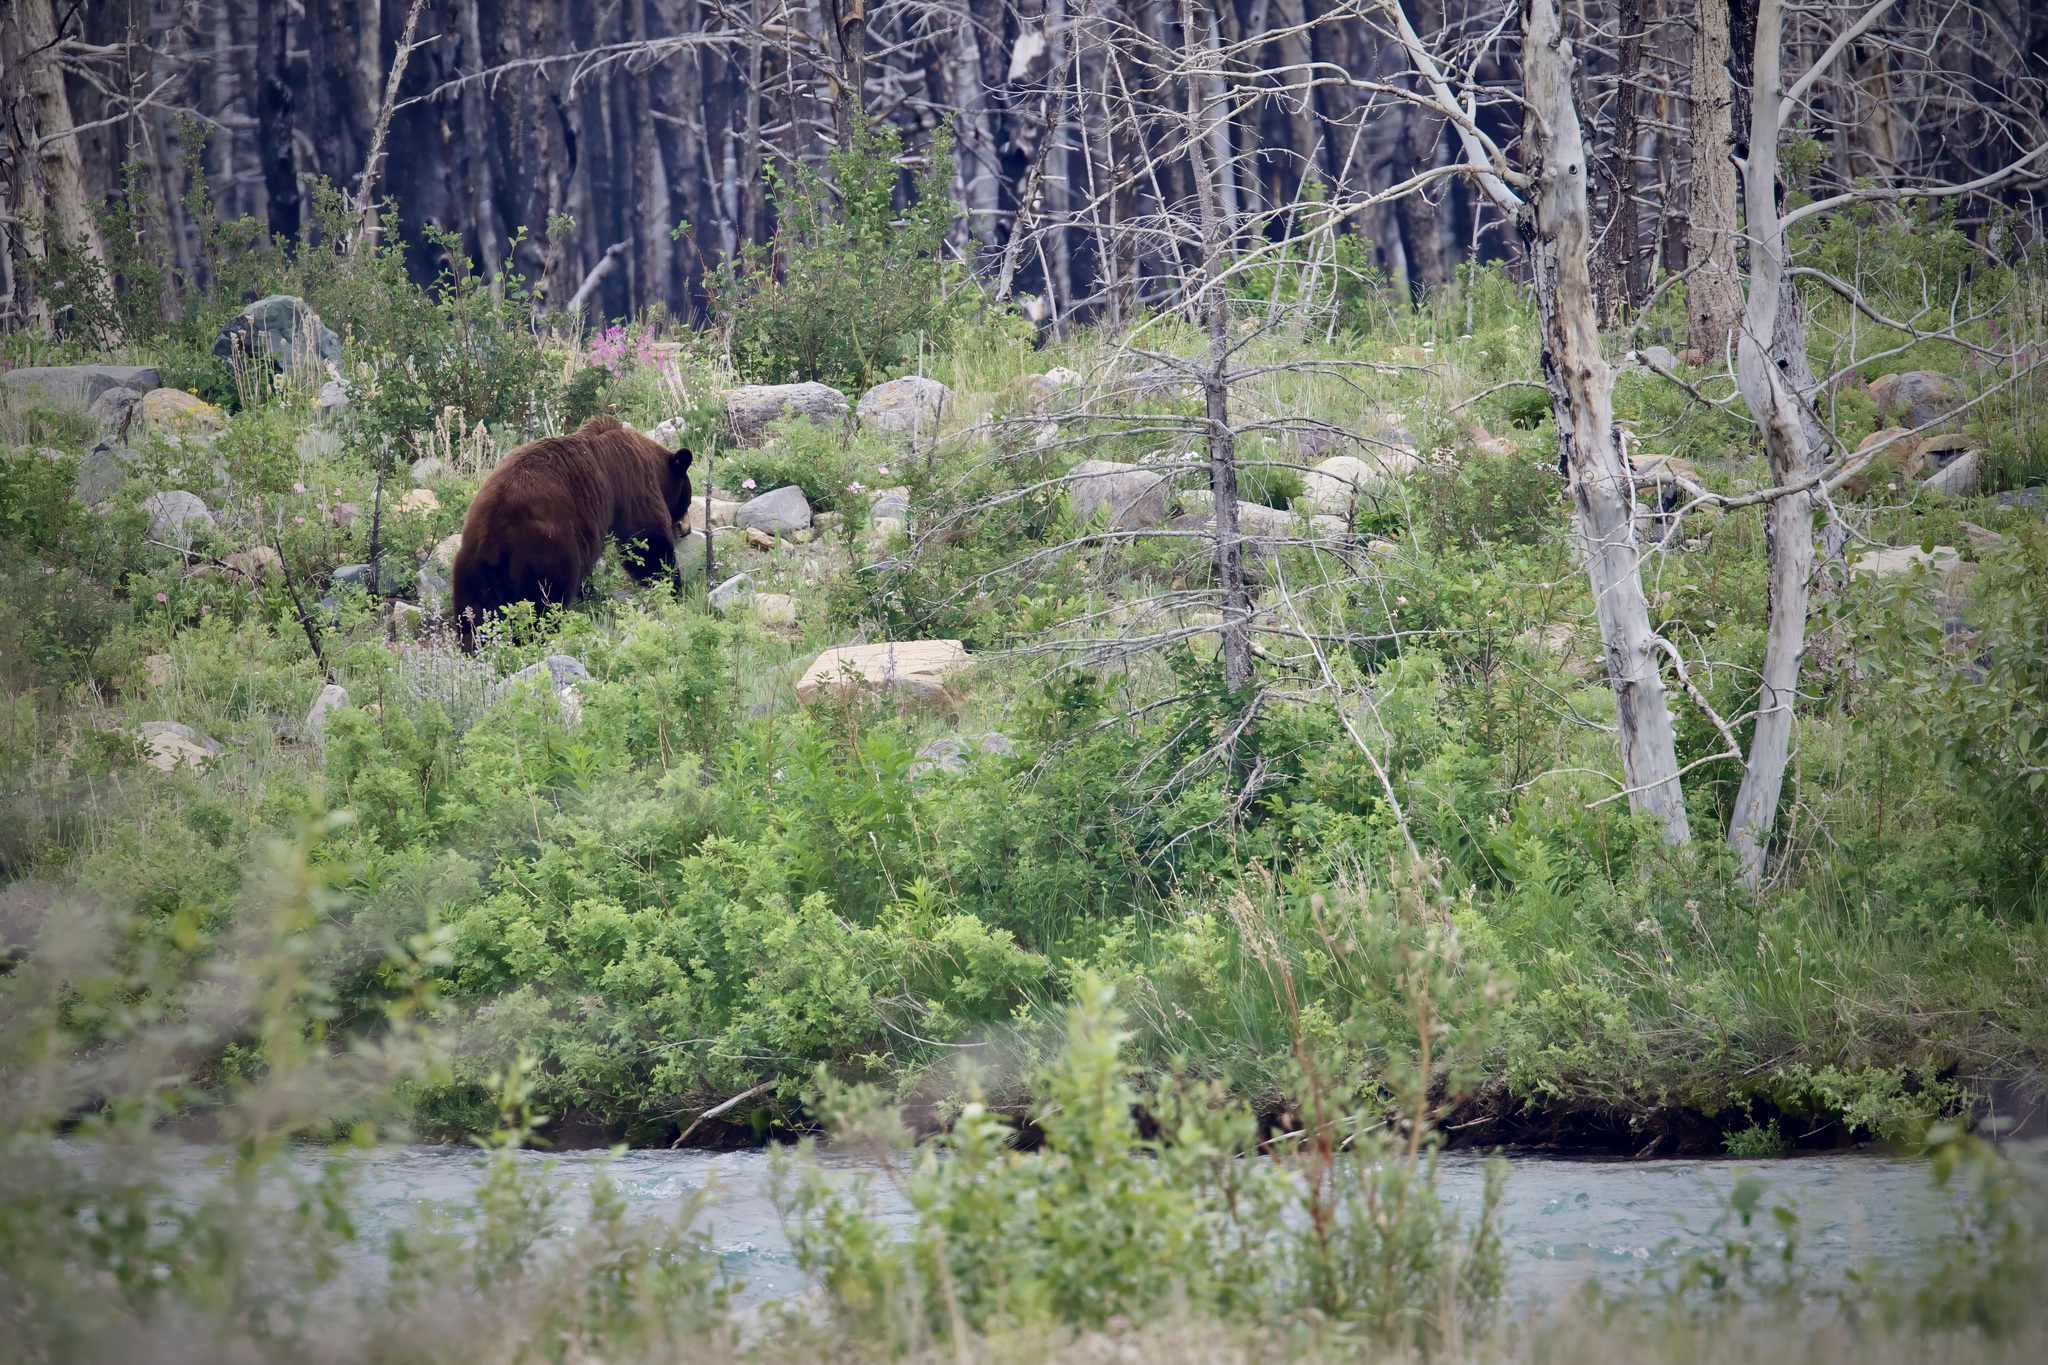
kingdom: Animalia
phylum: Chordata
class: Mammalia
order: Carnivora
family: Ursidae
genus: Ursus
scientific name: Ursus americanus
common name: American black bear
